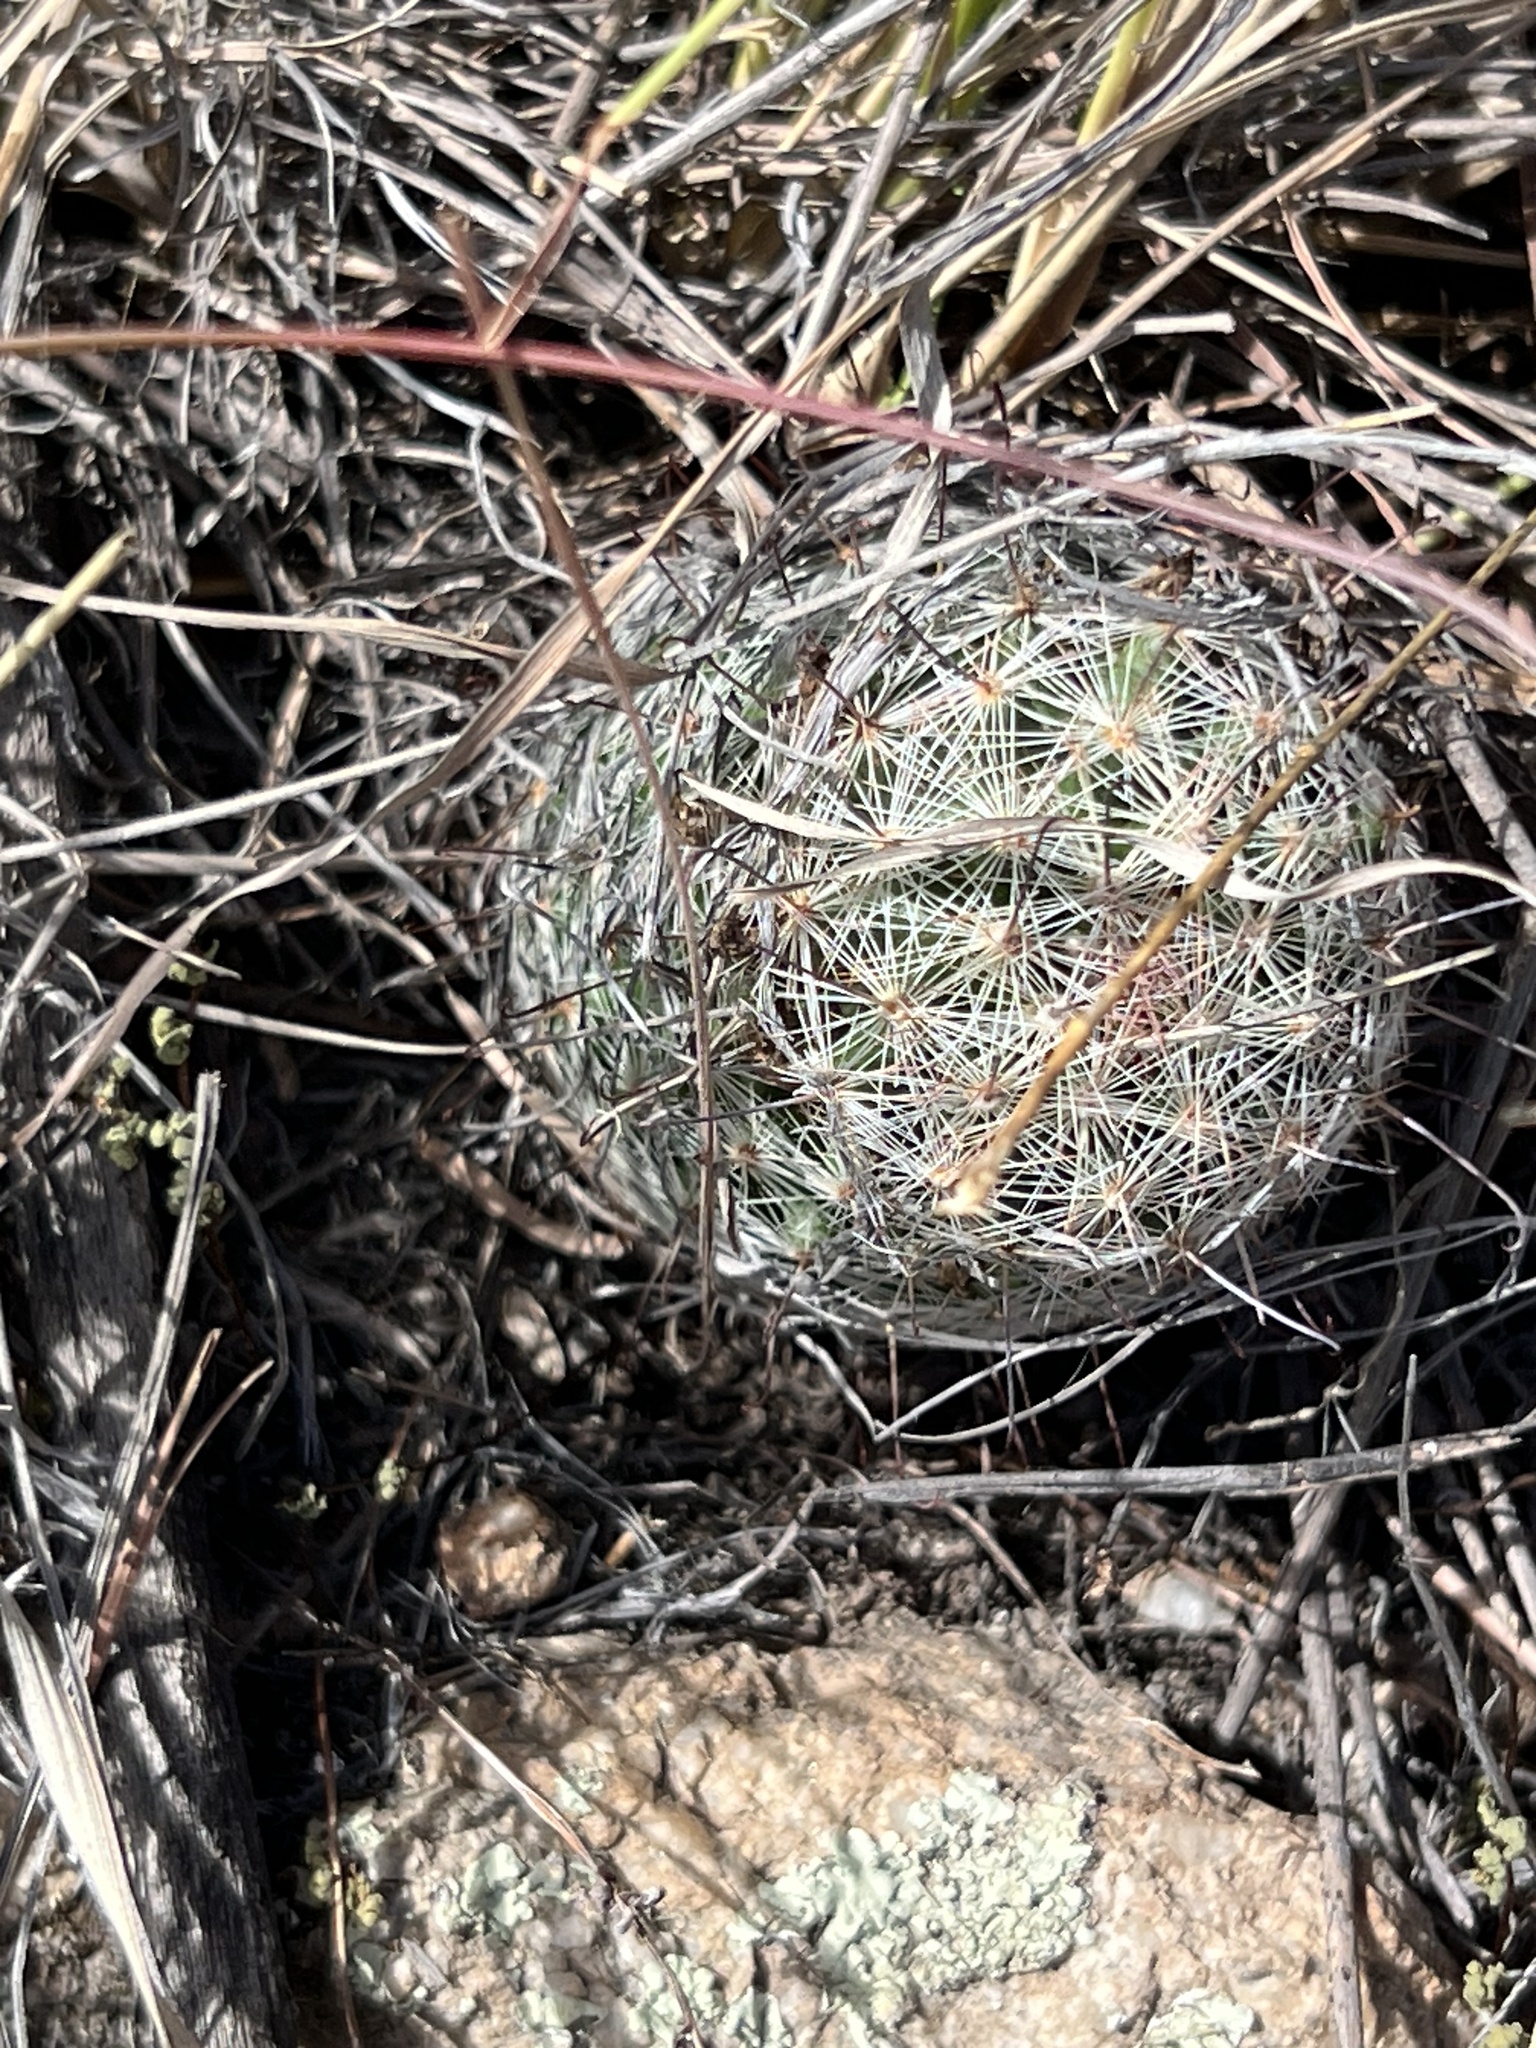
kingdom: Plantae
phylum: Tracheophyta
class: Magnoliopsida
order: Caryophyllales
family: Cactaceae
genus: Cochemiea
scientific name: Cochemiea grahamii
